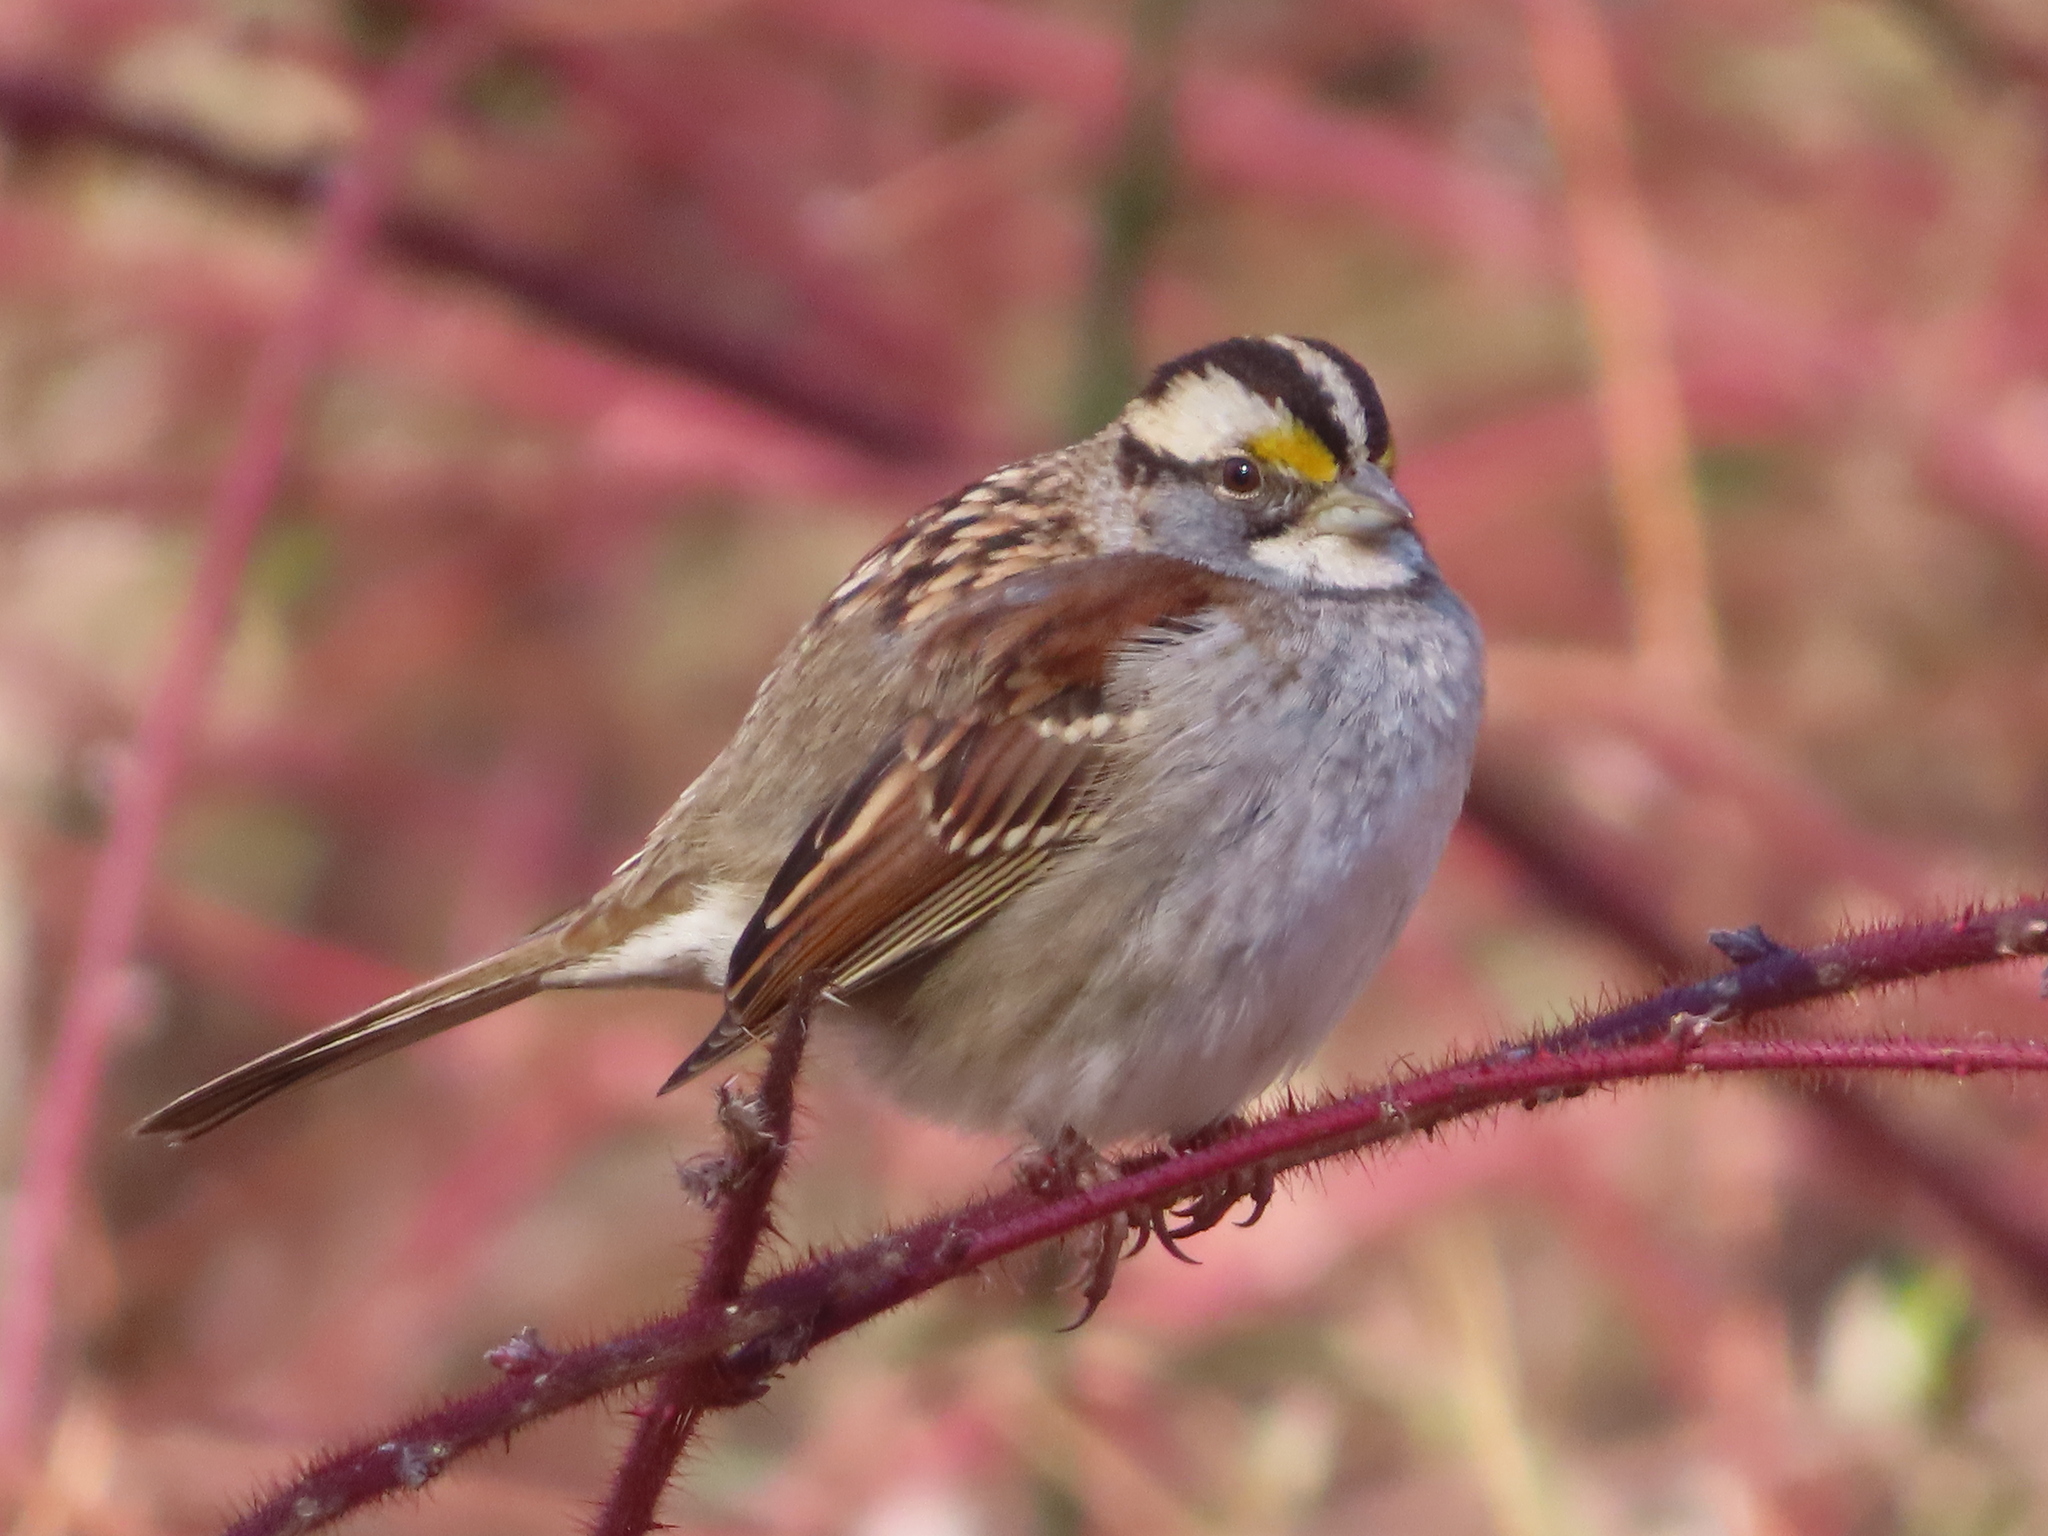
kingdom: Animalia
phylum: Chordata
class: Aves
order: Passeriformes
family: Passerellidae
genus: Zonotrichia
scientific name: Zonotrichia albicollis
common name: White-throated sparrow
